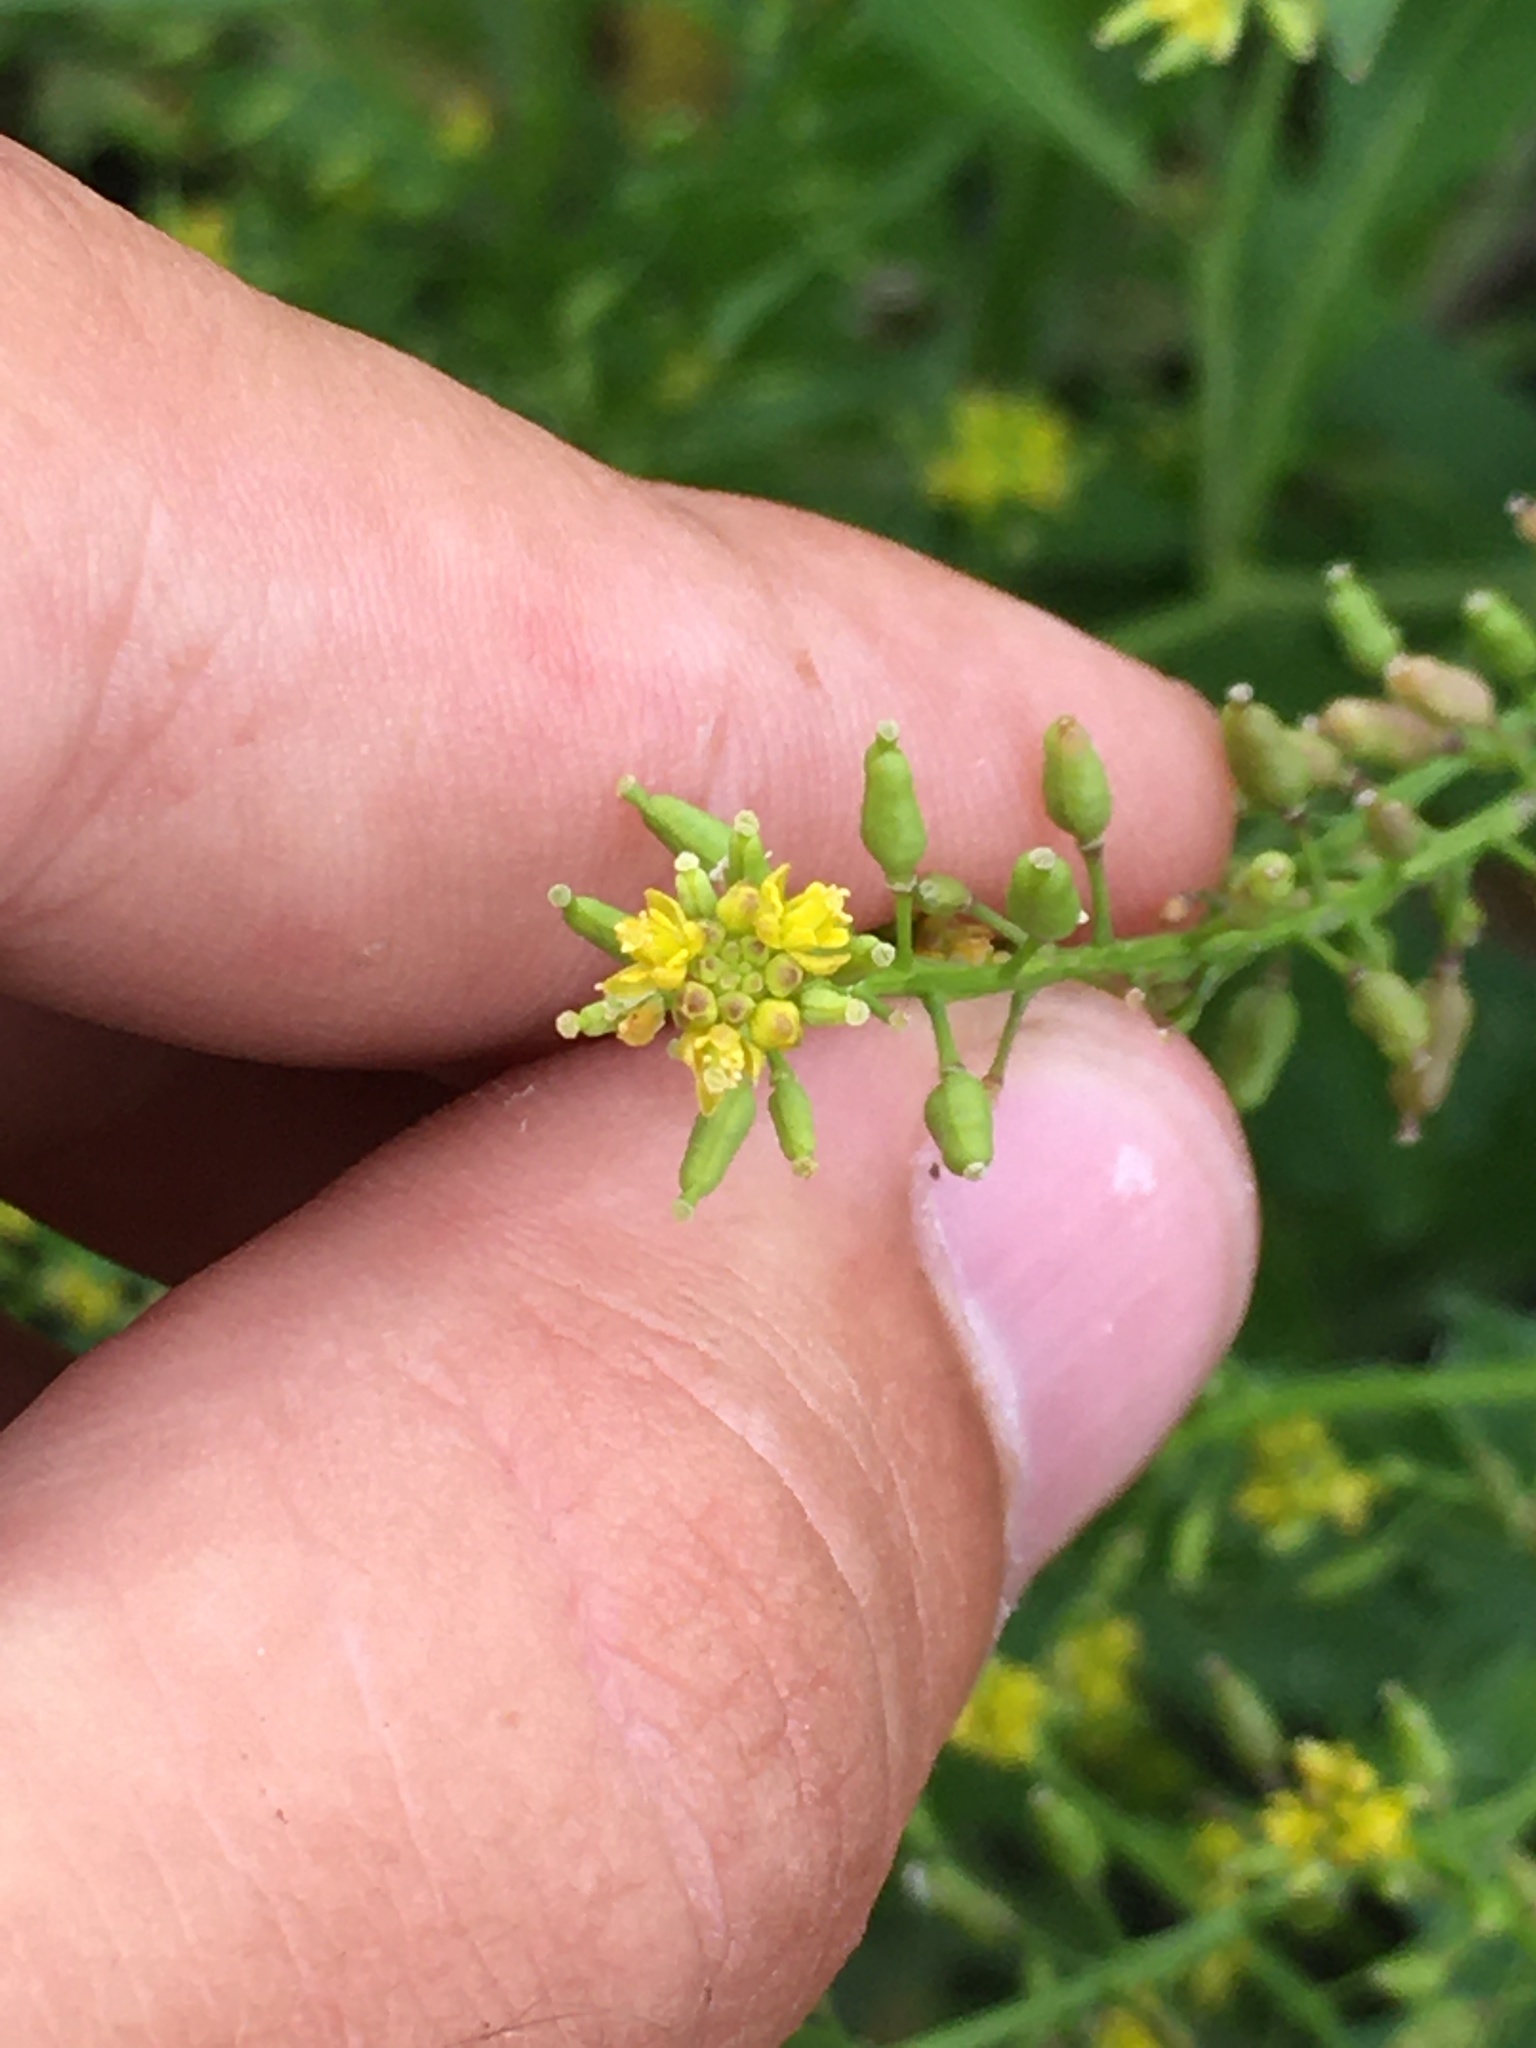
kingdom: Plantae
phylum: Tracheophyta
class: Magnoliopsida
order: Brassicales
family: Brassicaceae
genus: Rorippa
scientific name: Rorippa palustris
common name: Marsh yellow-cress
